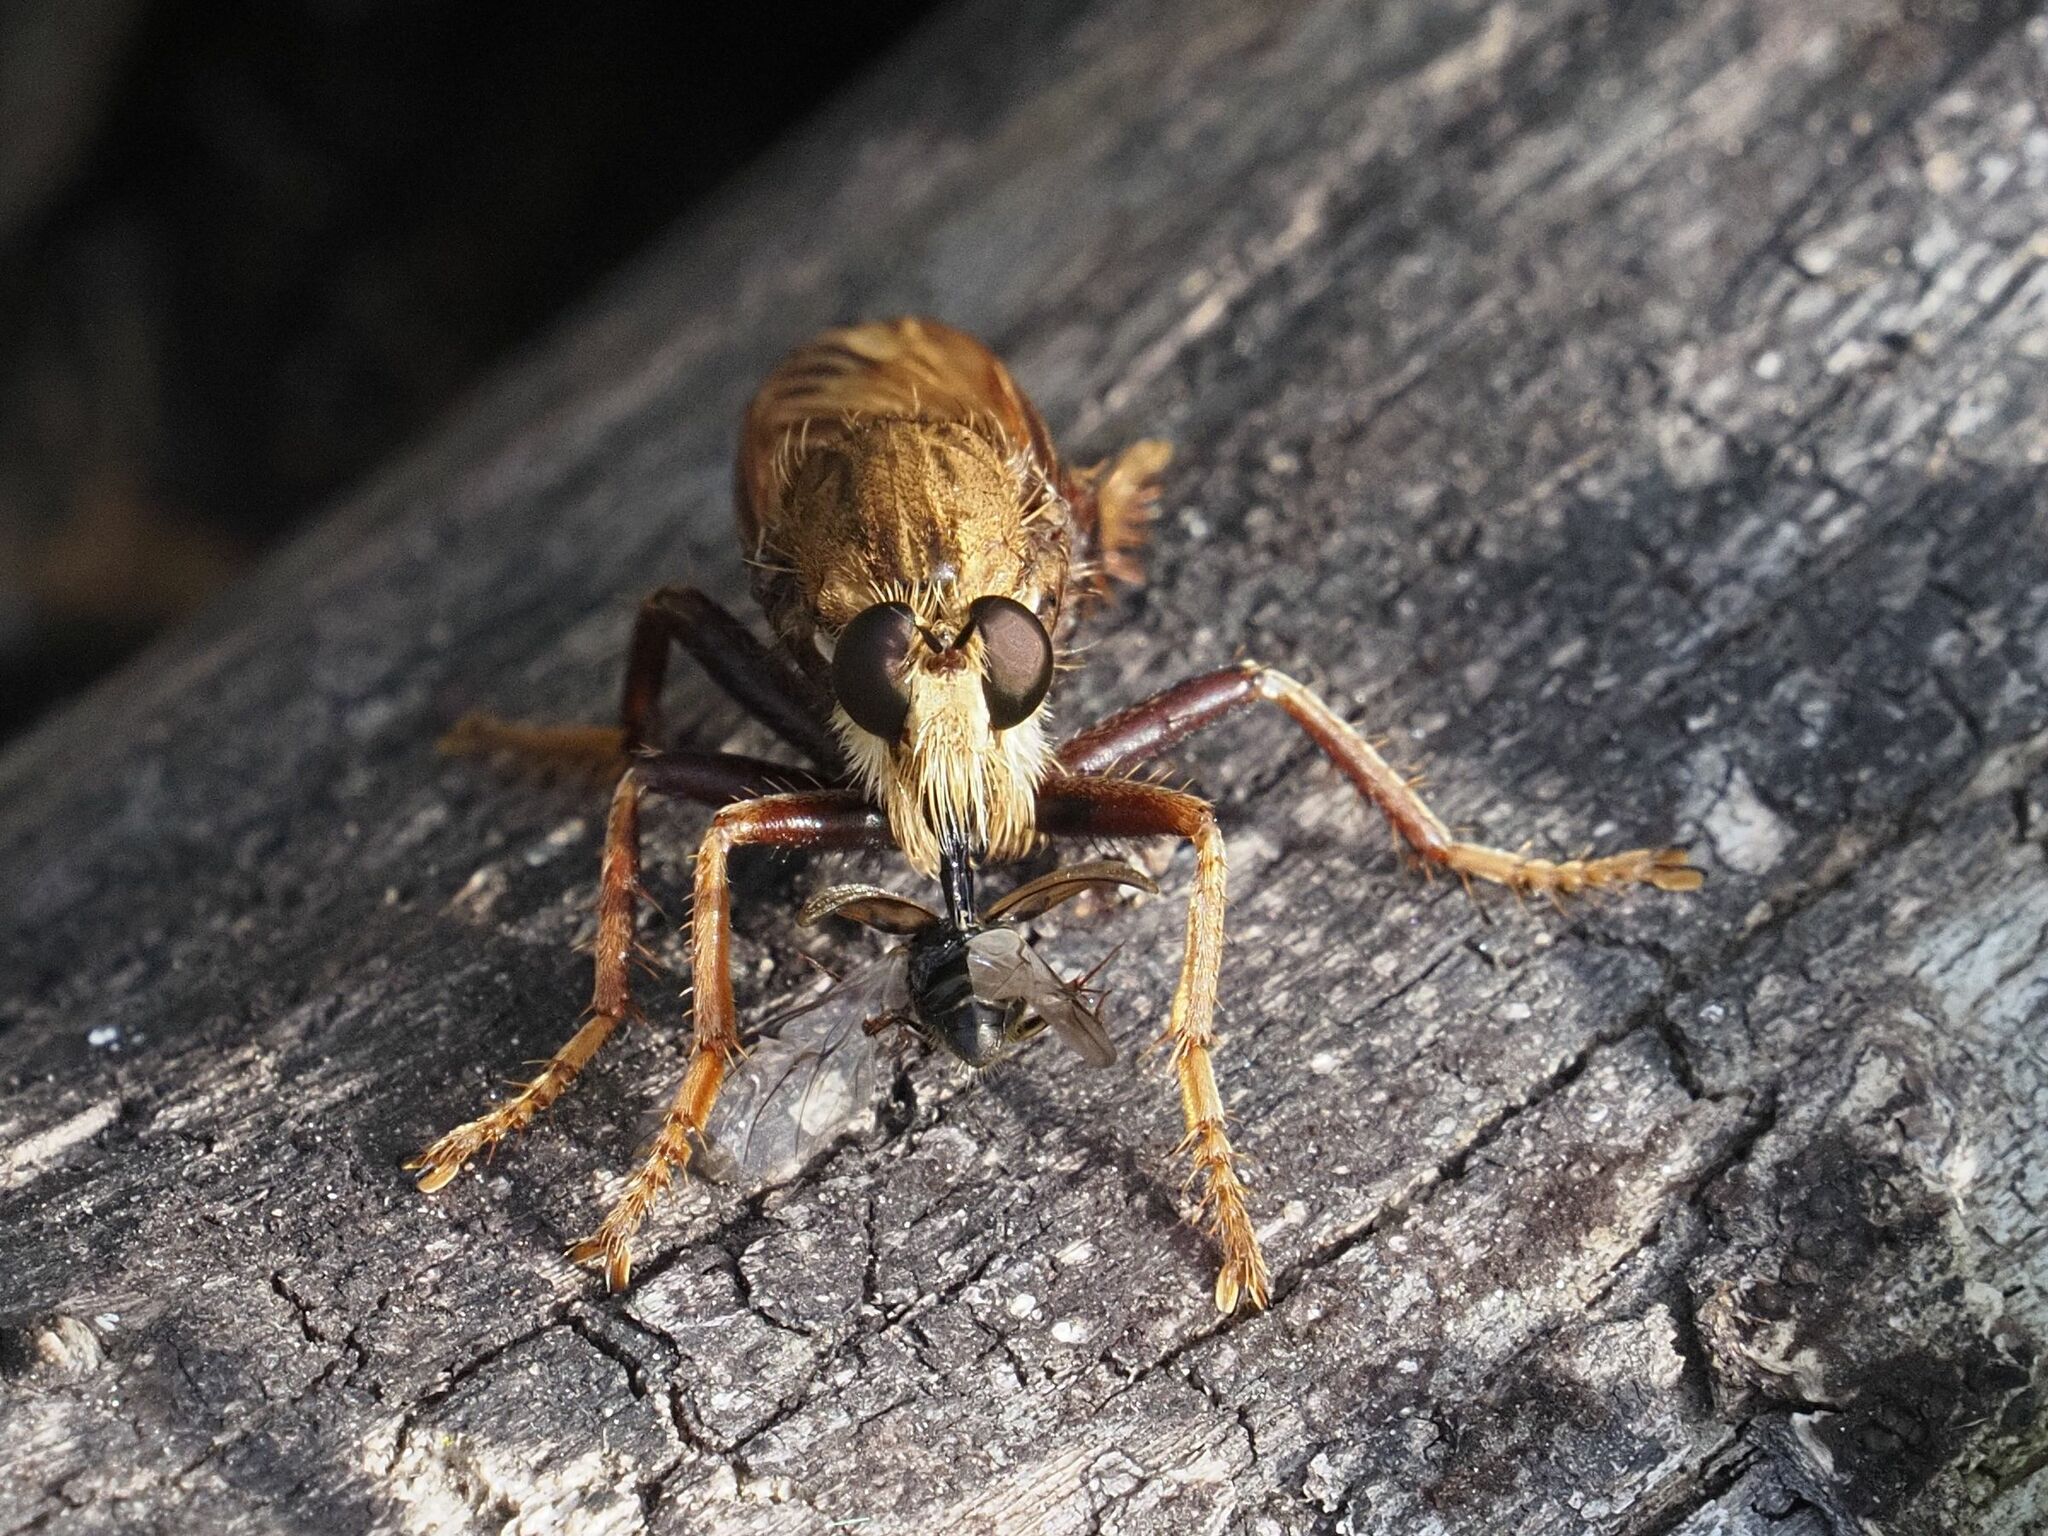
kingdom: Animalia
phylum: Arthropoda
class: Insecta
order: Diptera
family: Asilidae
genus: Asilus
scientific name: Asilus crabroniformis
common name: Hornet robberfly
